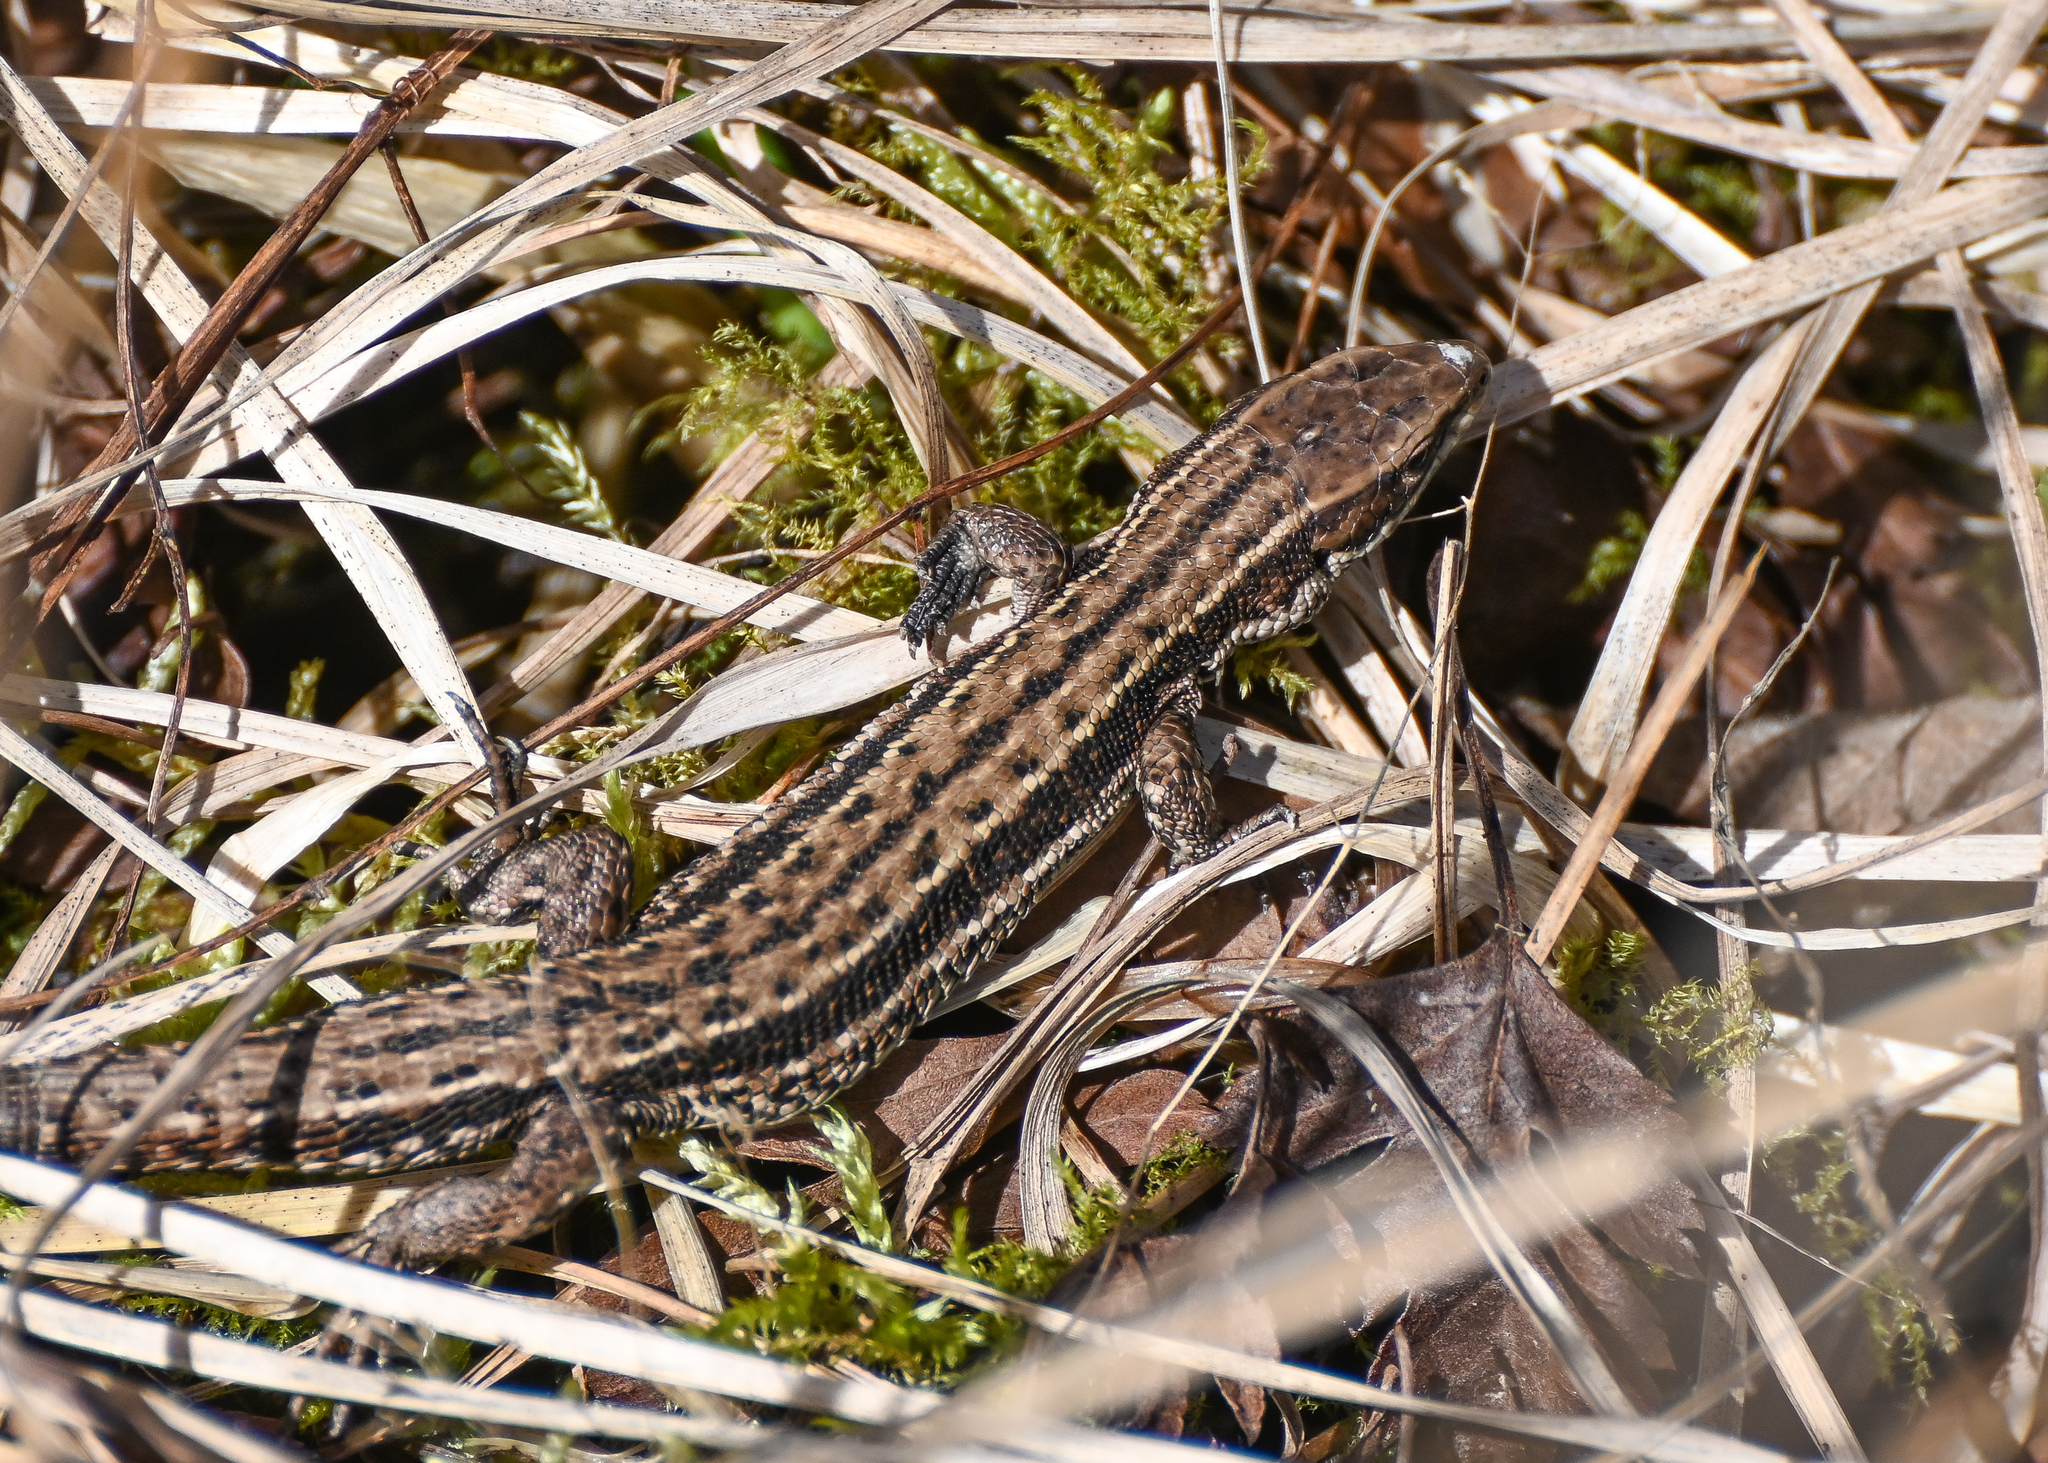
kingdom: Animalia
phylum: Chordata
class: Squamata
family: Lacertidae
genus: Zootoca
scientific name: Zootoca vivipara
